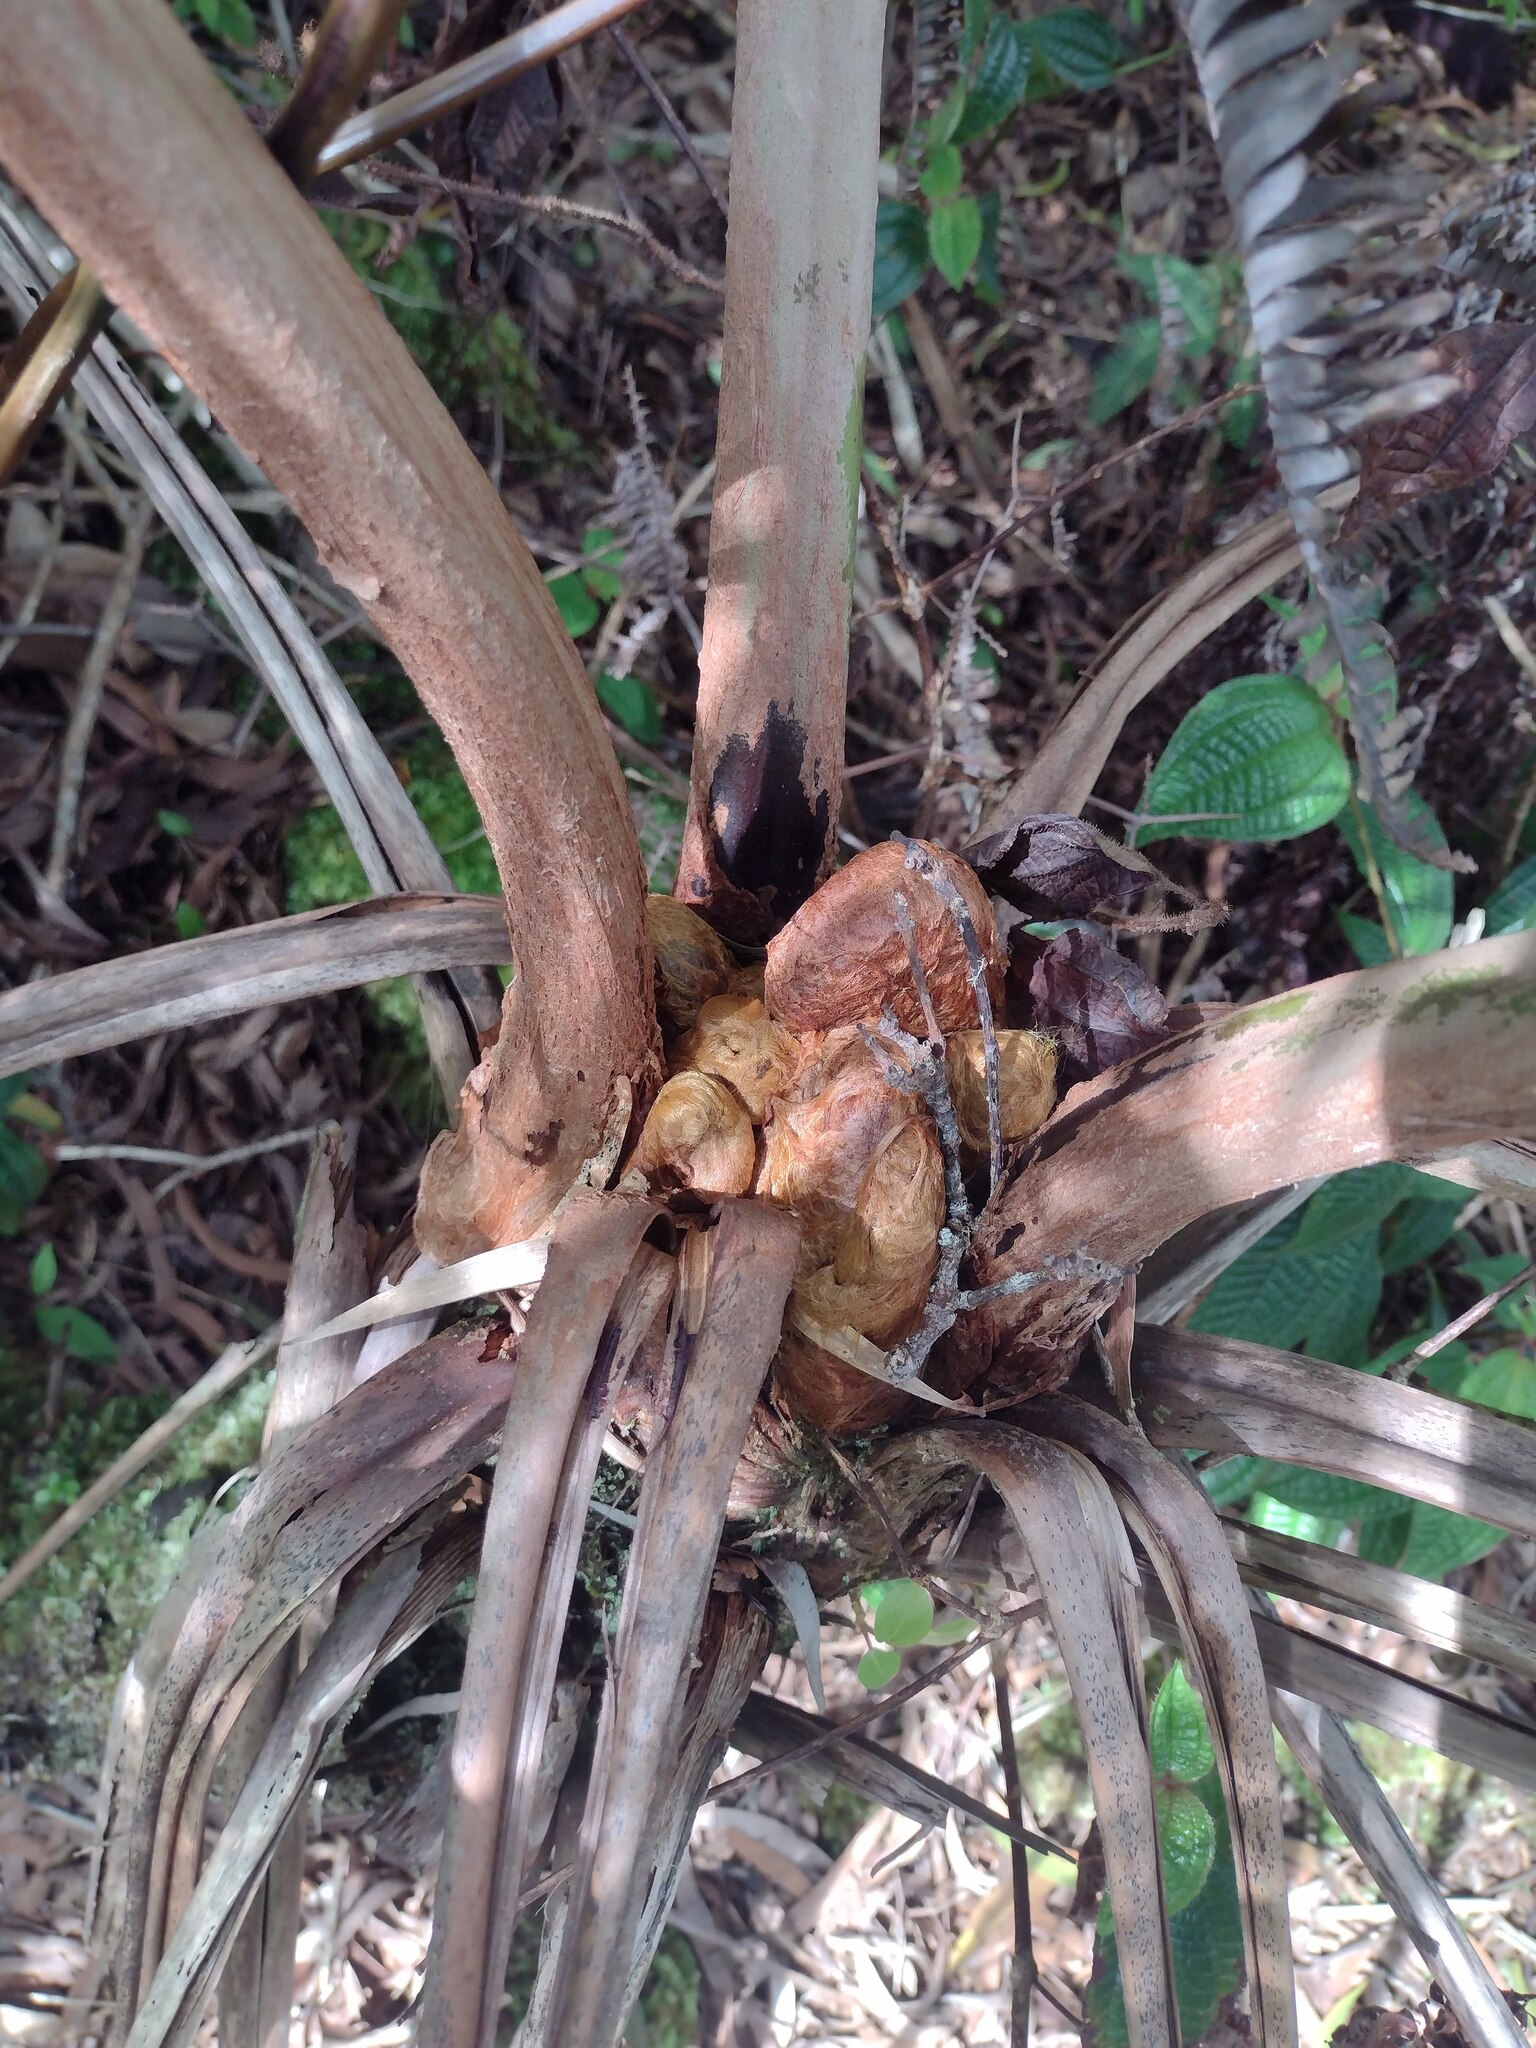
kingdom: Plantae
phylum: Tracheophyta
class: Polypodiopsida
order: Cyatheales
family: Cibotiaceae
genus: Cibotium
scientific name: Cibotium chamissoi
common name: Hawaiian tree fern
